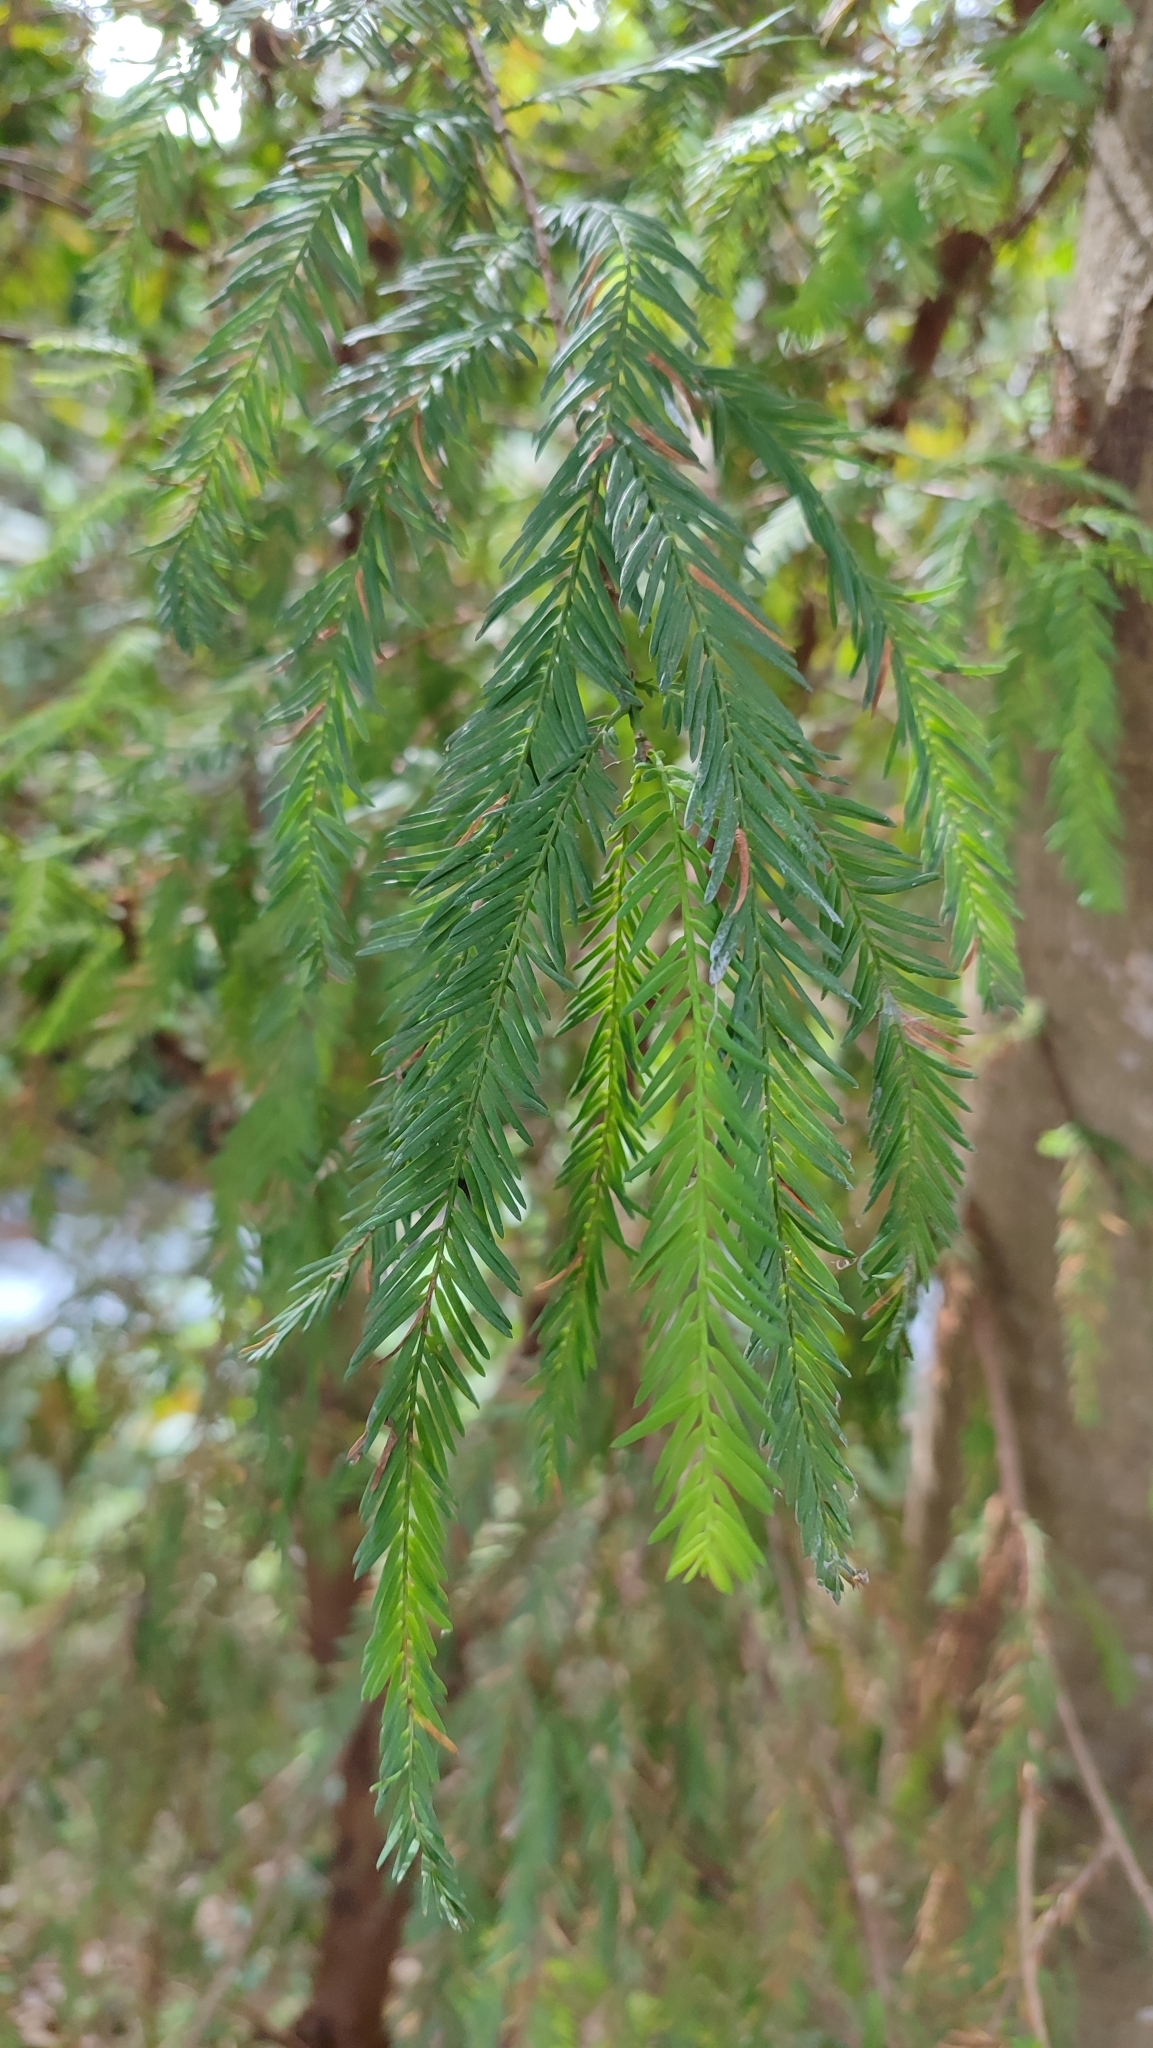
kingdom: Plantae
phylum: Tracheophyta
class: Pinopsida
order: Pinales
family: Cupressaceae
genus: Taxodium
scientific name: Taxodium mucronatum
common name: Montezume bald cypress
